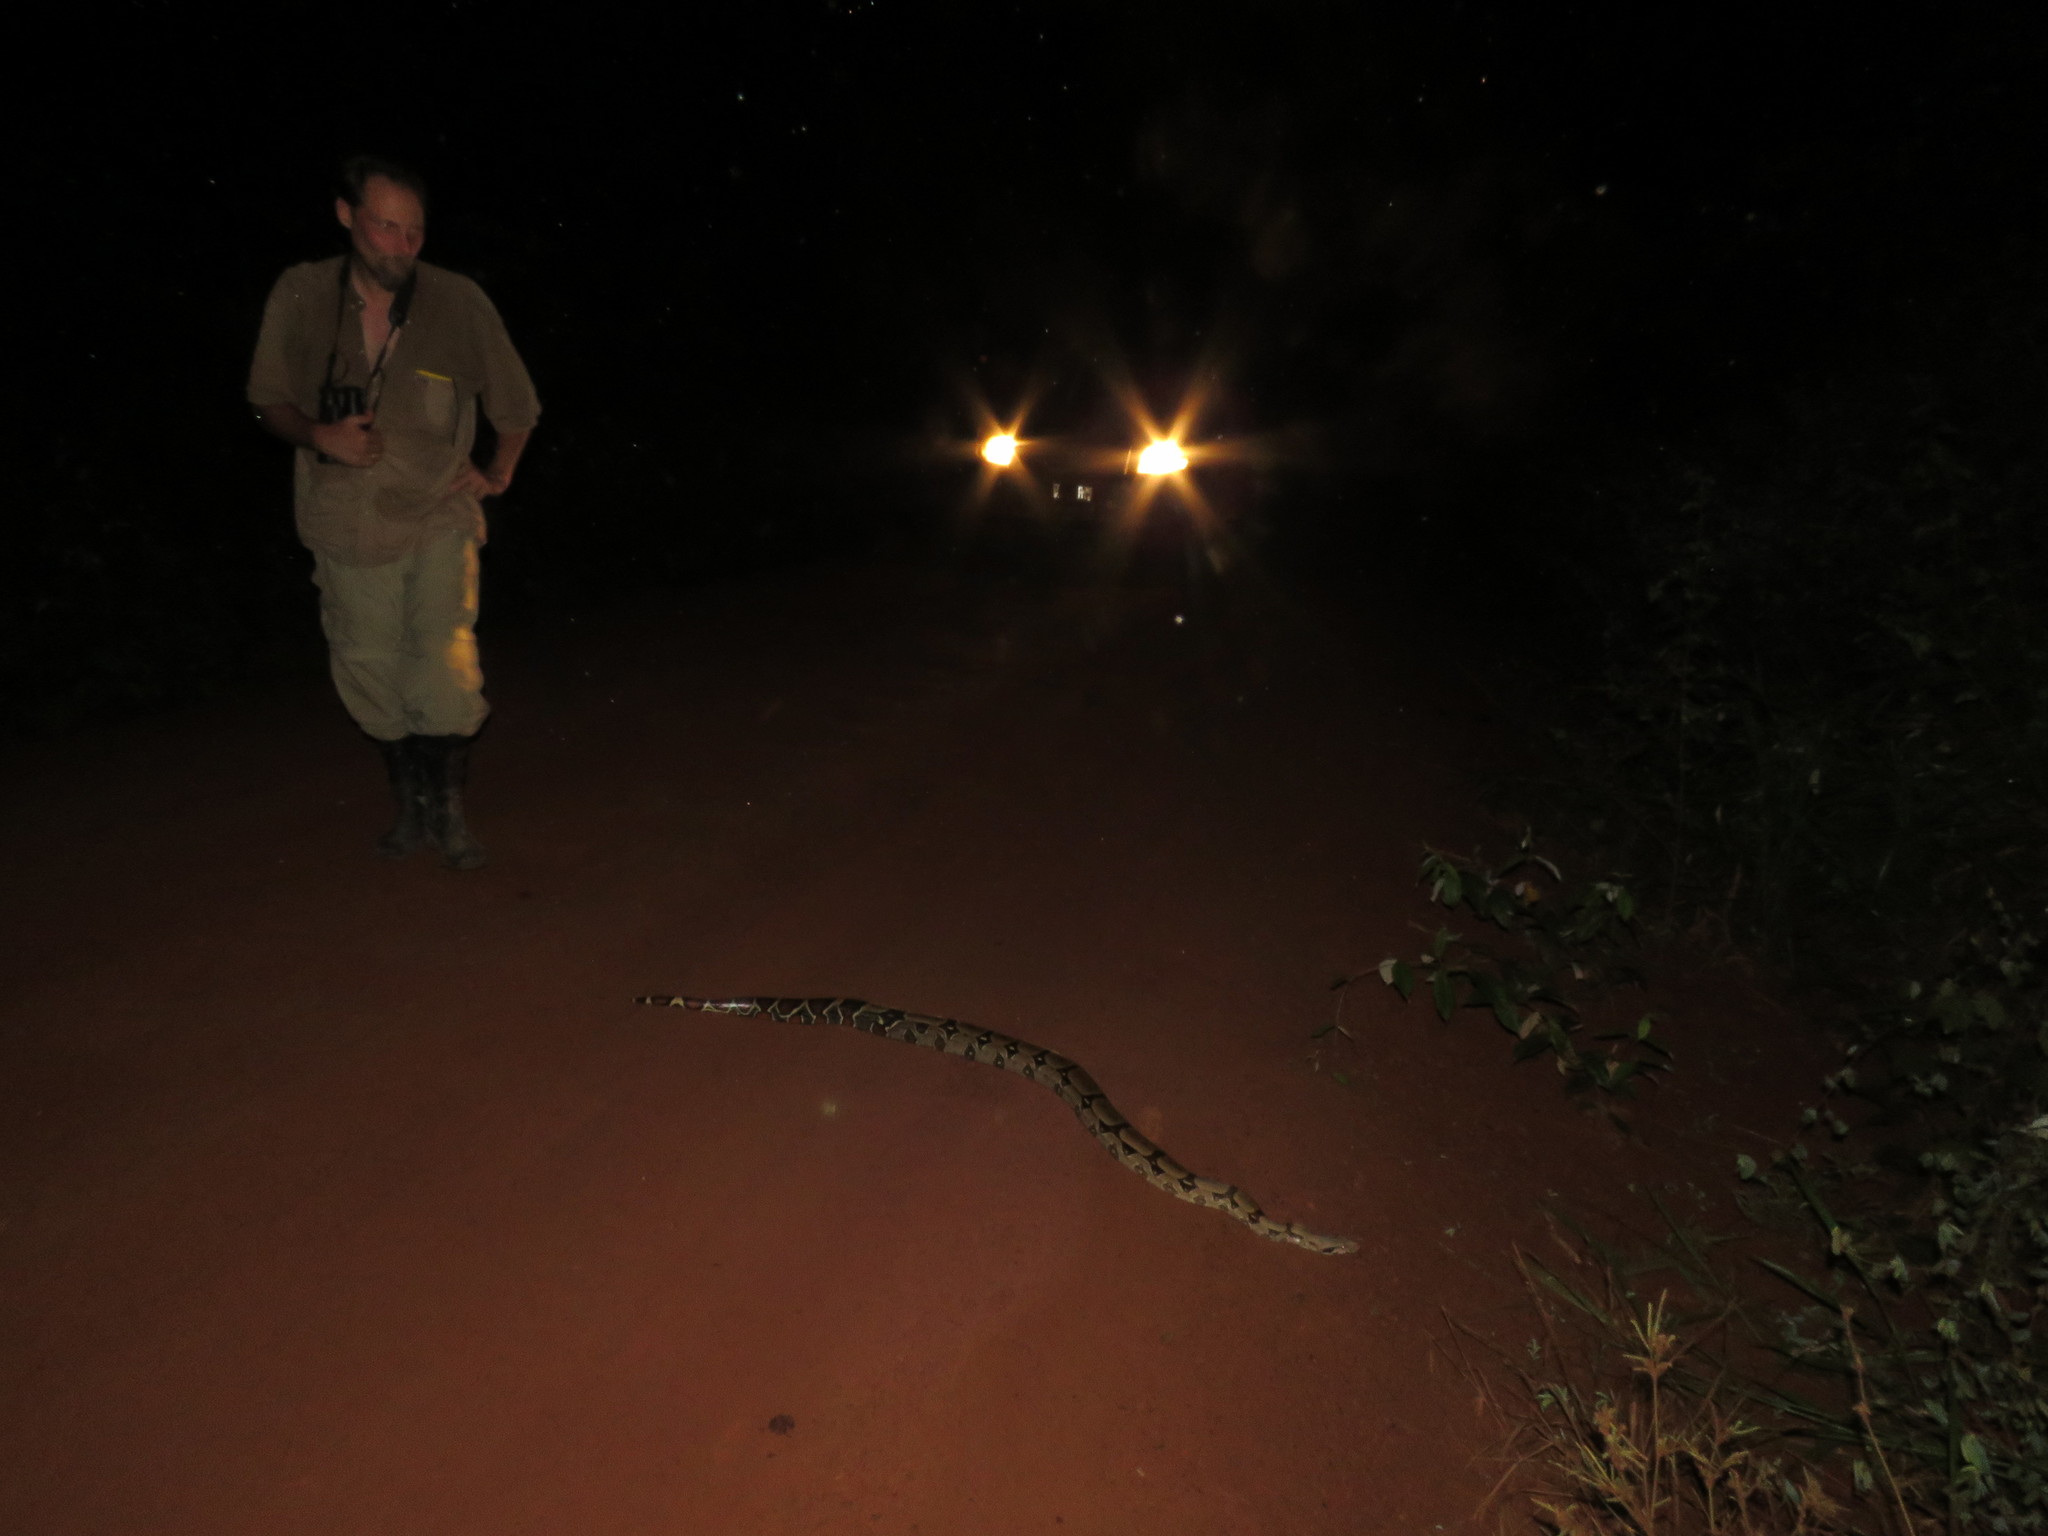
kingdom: Animalia
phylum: Chordata
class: Squamata
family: Boidae
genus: Boa
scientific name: Boa constrictor
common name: Boa constrictor
